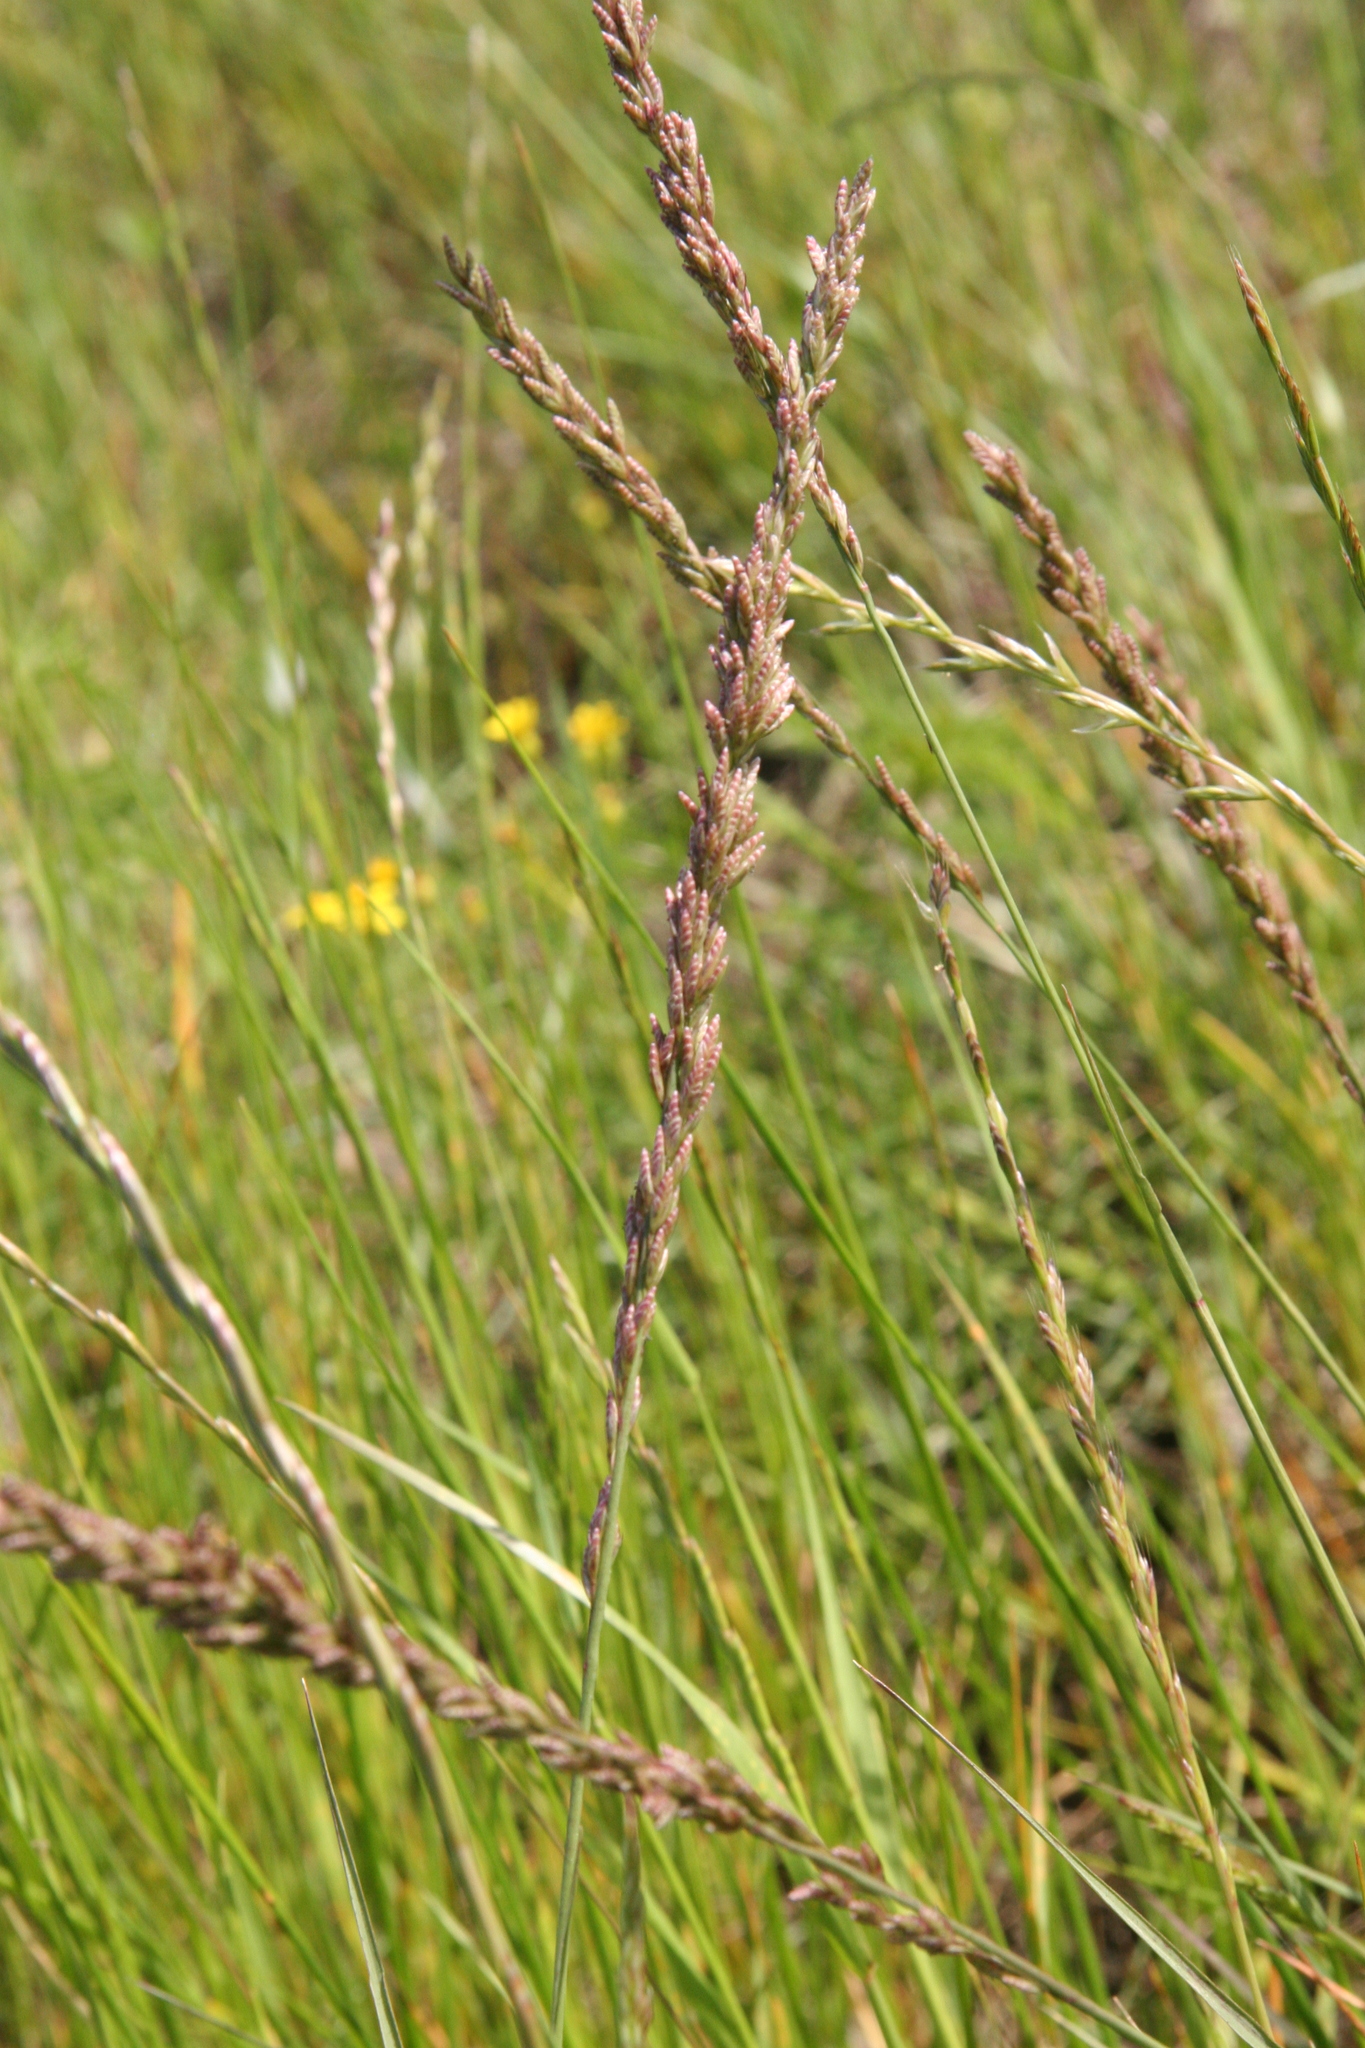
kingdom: Plantae
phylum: Tracheophyta
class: Liliopsida
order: Poales
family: Poaceae
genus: Tridens
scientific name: Tridens albescens
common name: White tridens
